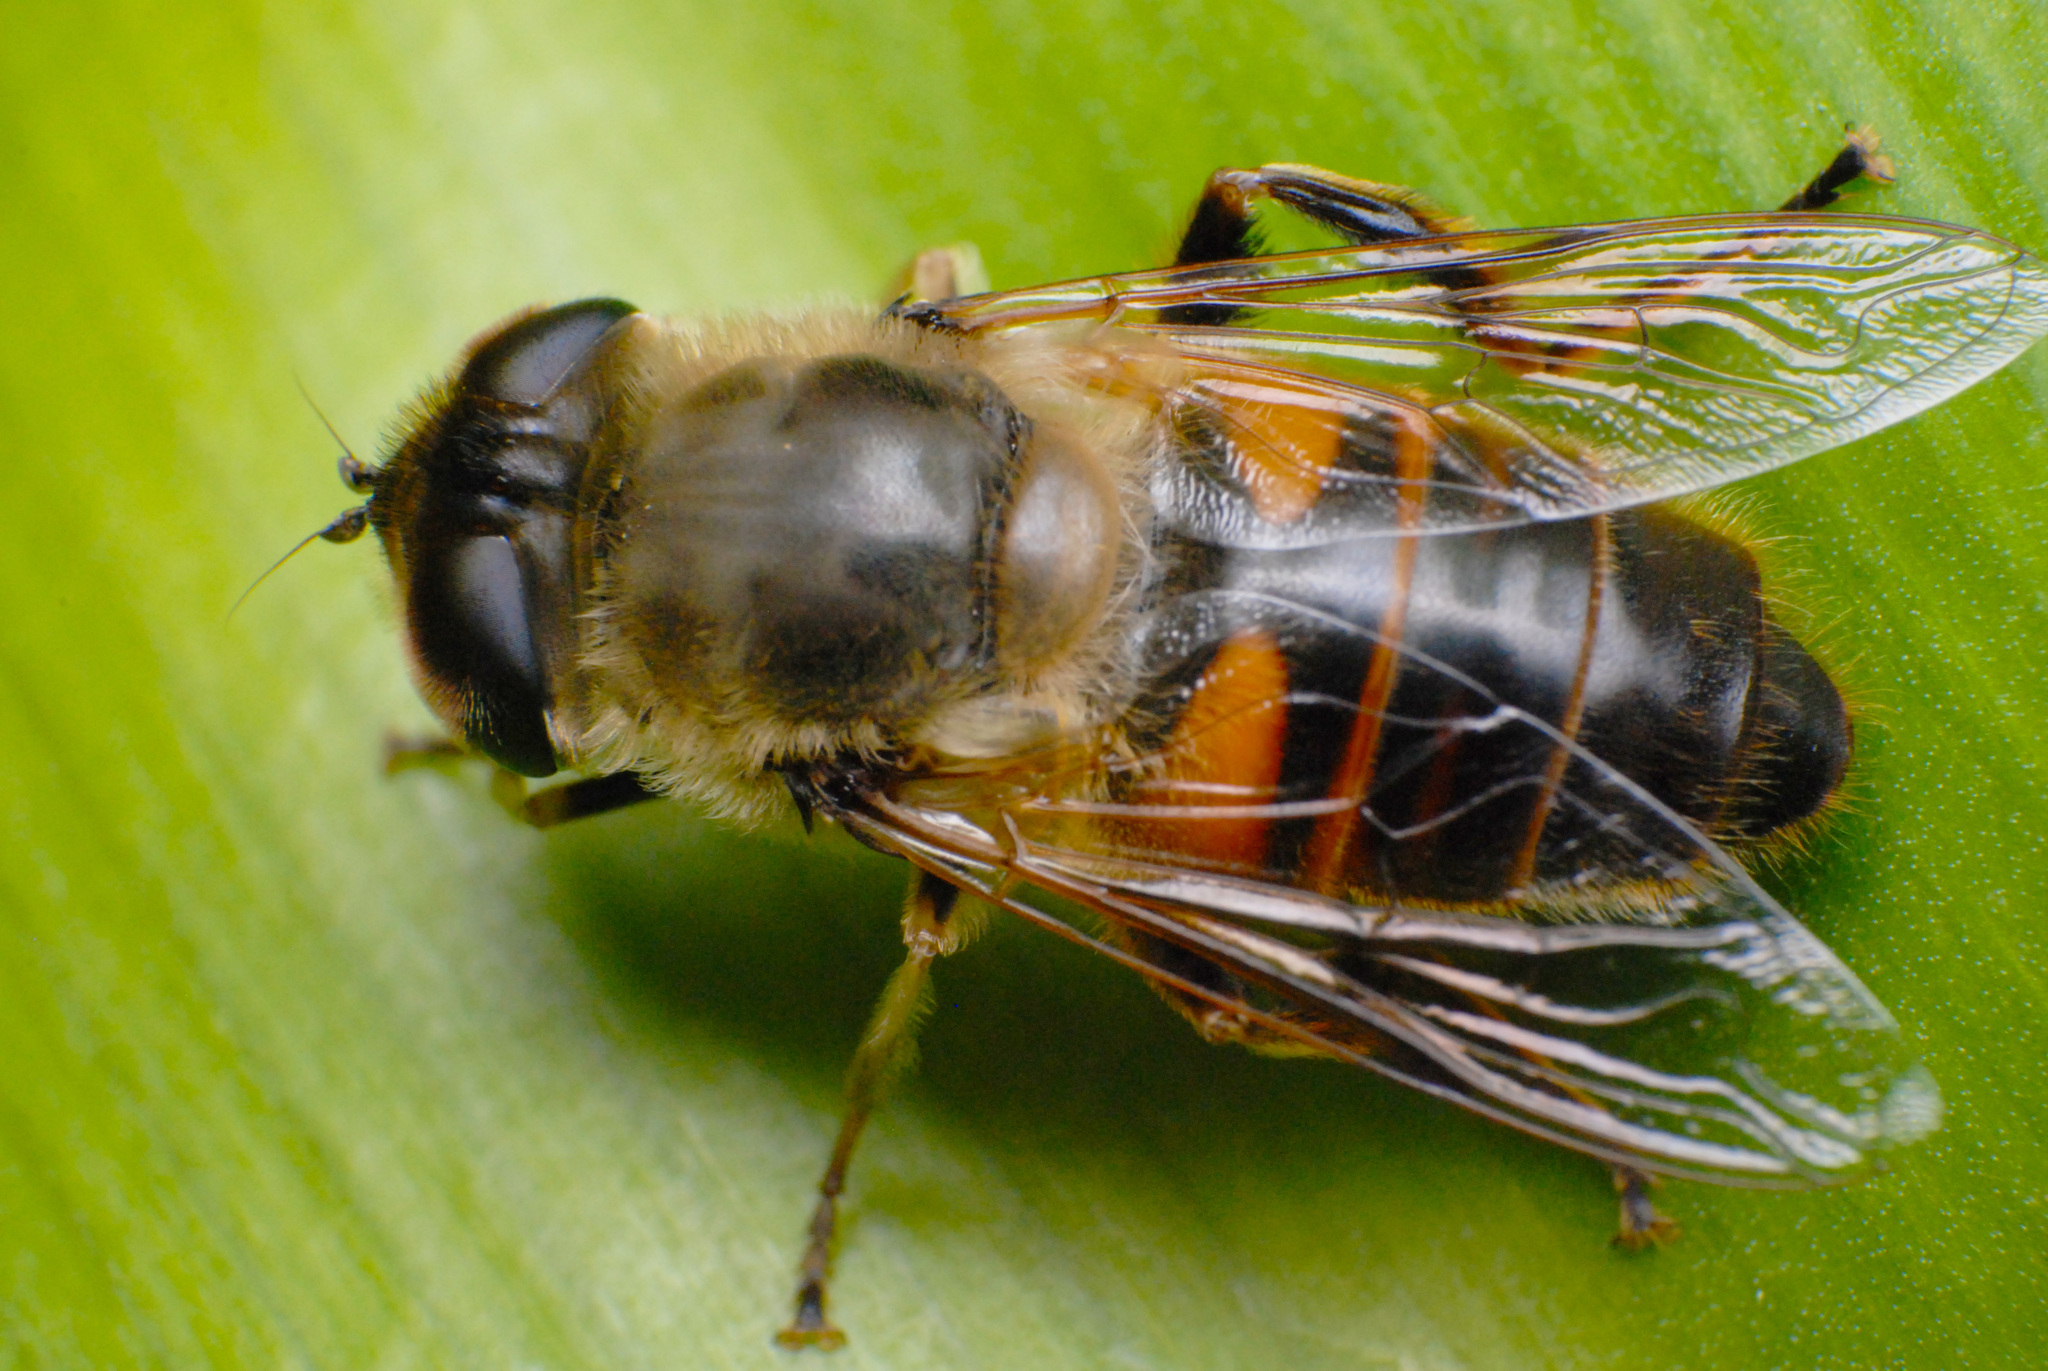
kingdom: Animalia
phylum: Arthropoda
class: Insecta
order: Diptera
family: Syrphidae
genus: Eristalis
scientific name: Eristalis tenax
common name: Drone fly
